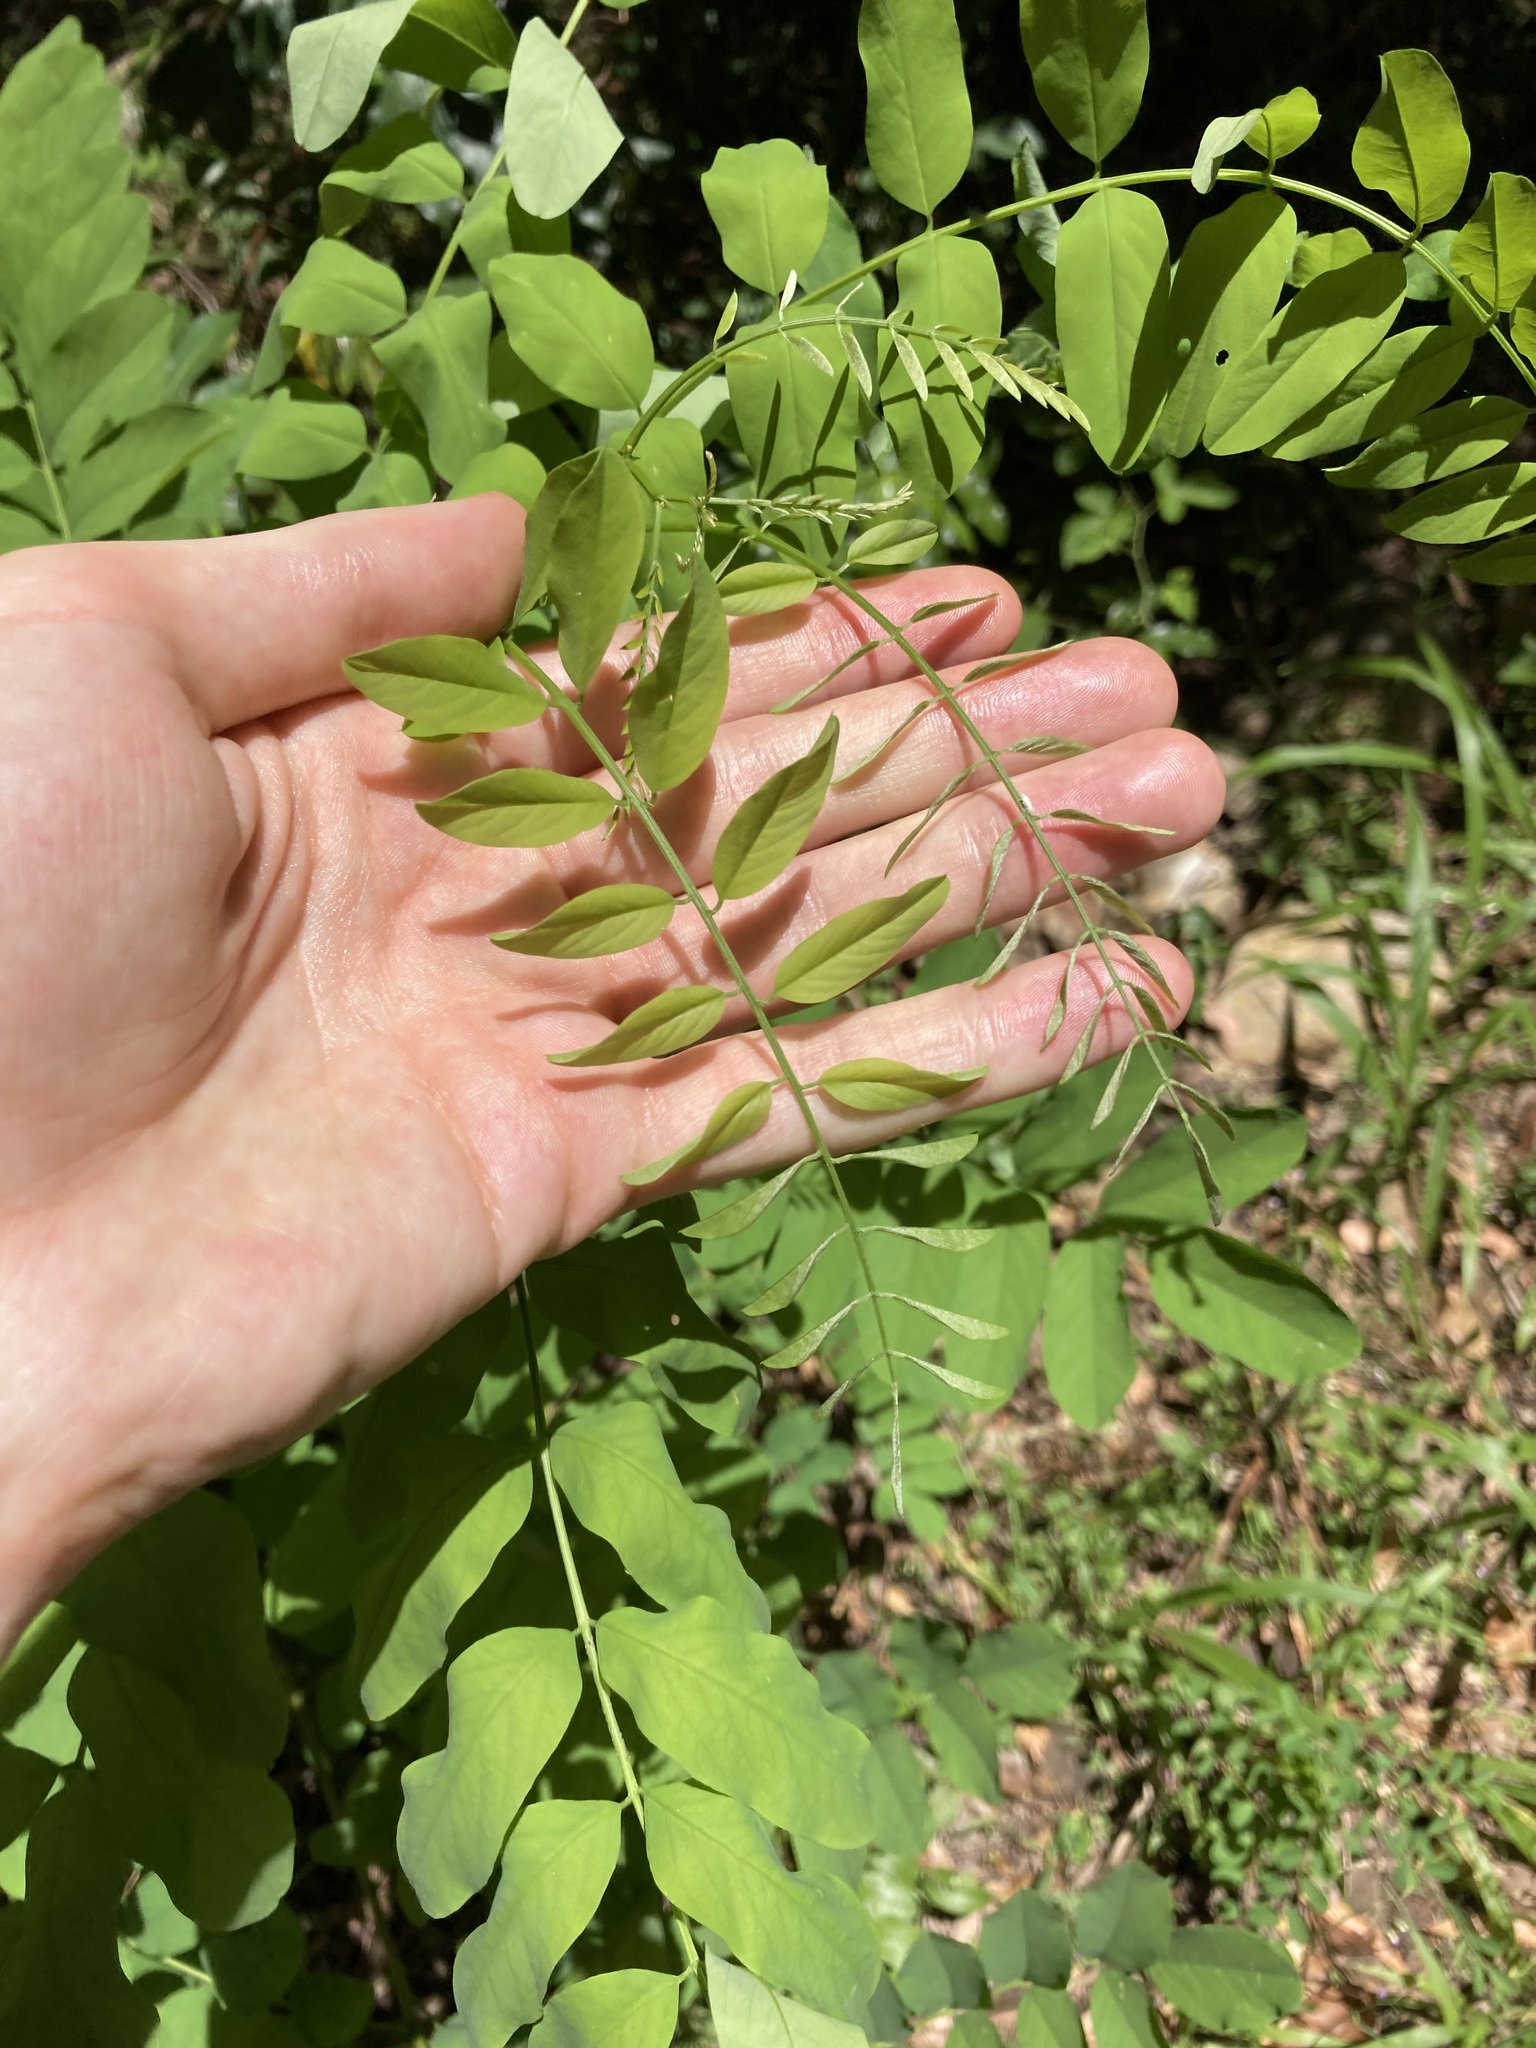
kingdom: Plantae
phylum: Tracheophyta
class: Magnoliopsida
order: Fabales
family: Fabaceae
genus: Robinia
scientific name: Robinia pseudoacacia
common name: Black locust
